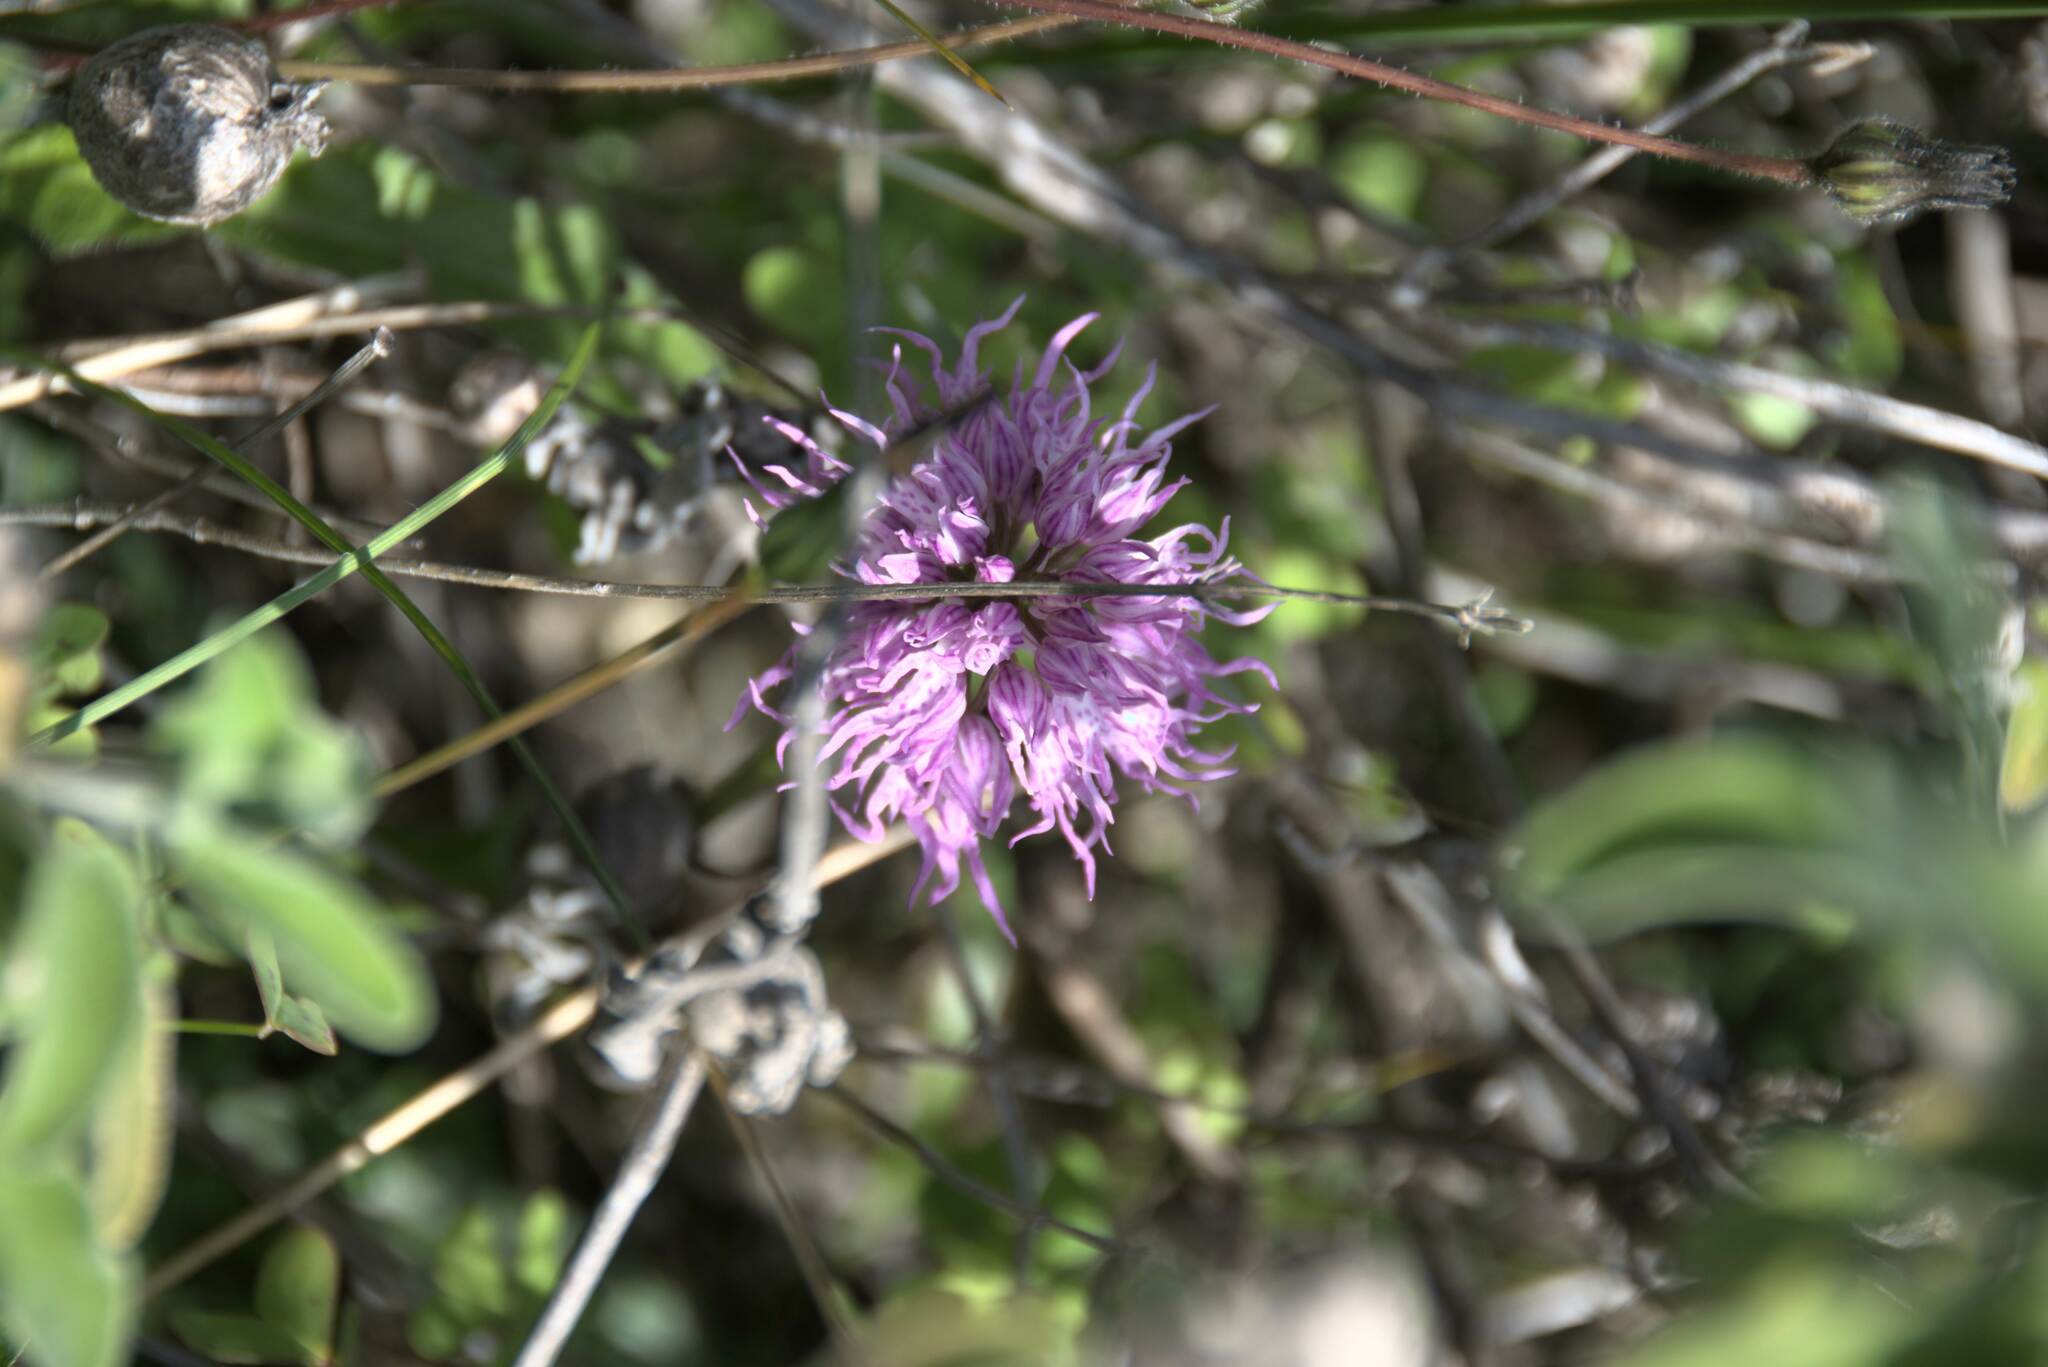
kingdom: Plantae
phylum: Tracheophyta
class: Liliopsida
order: Asparagales
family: Orchidaceae
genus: Orchis
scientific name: Orchis italica
